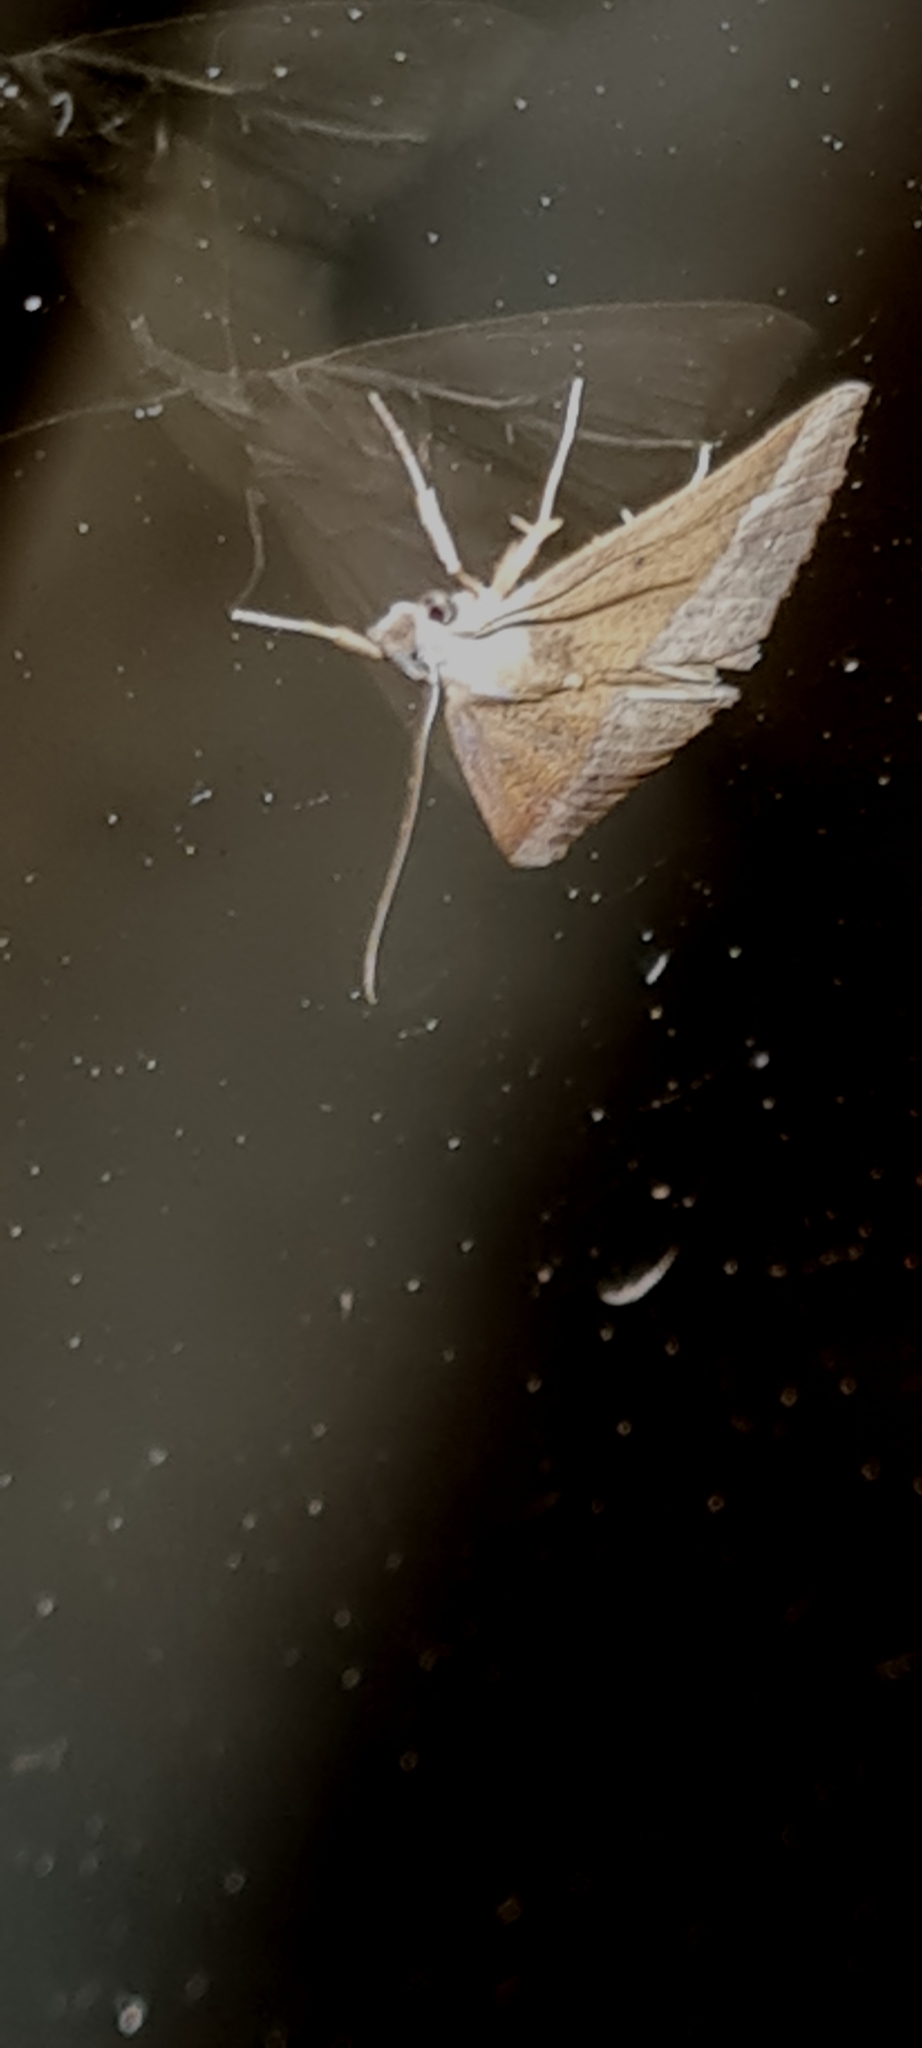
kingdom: Animalia
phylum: Arthropoda
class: Insecta
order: Lepidoptera
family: Erebidae
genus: Hypena
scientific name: Hypena lividalis
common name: Chevron snout
